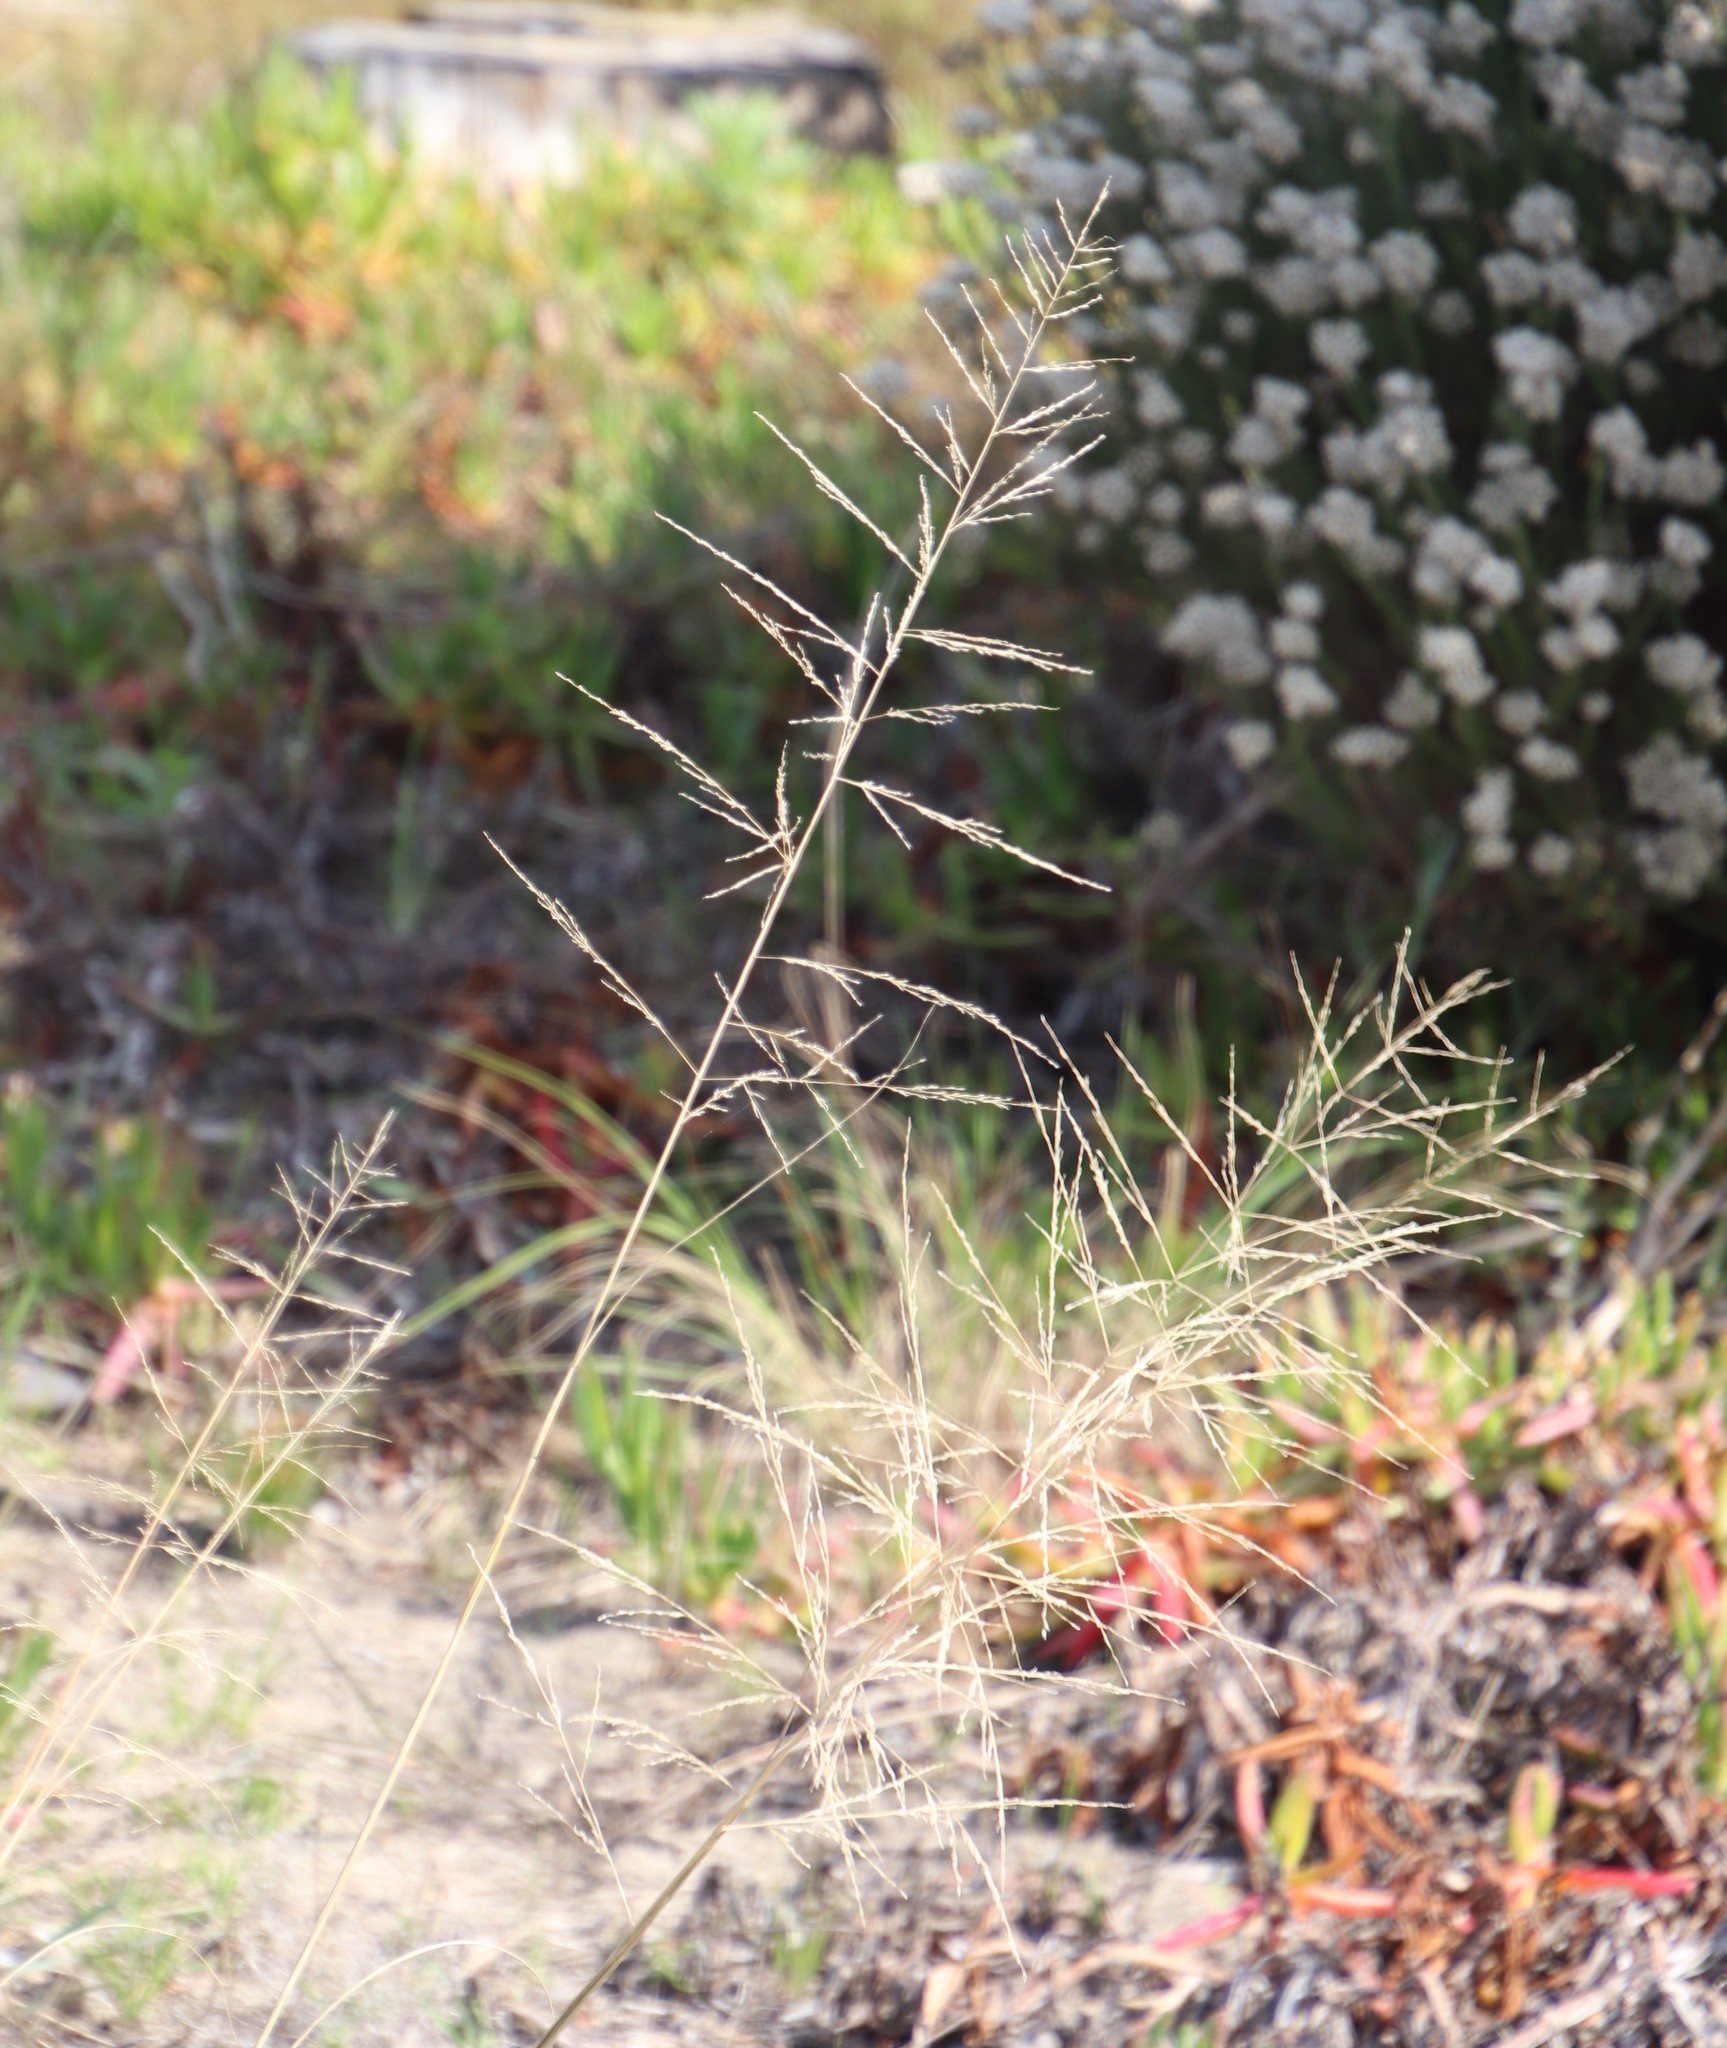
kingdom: Plantae
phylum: Tracheophyta
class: Liliopsida
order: Poales
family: Poaceae
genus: Eragrostis
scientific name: Eragrostis curvula
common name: African love-grass
